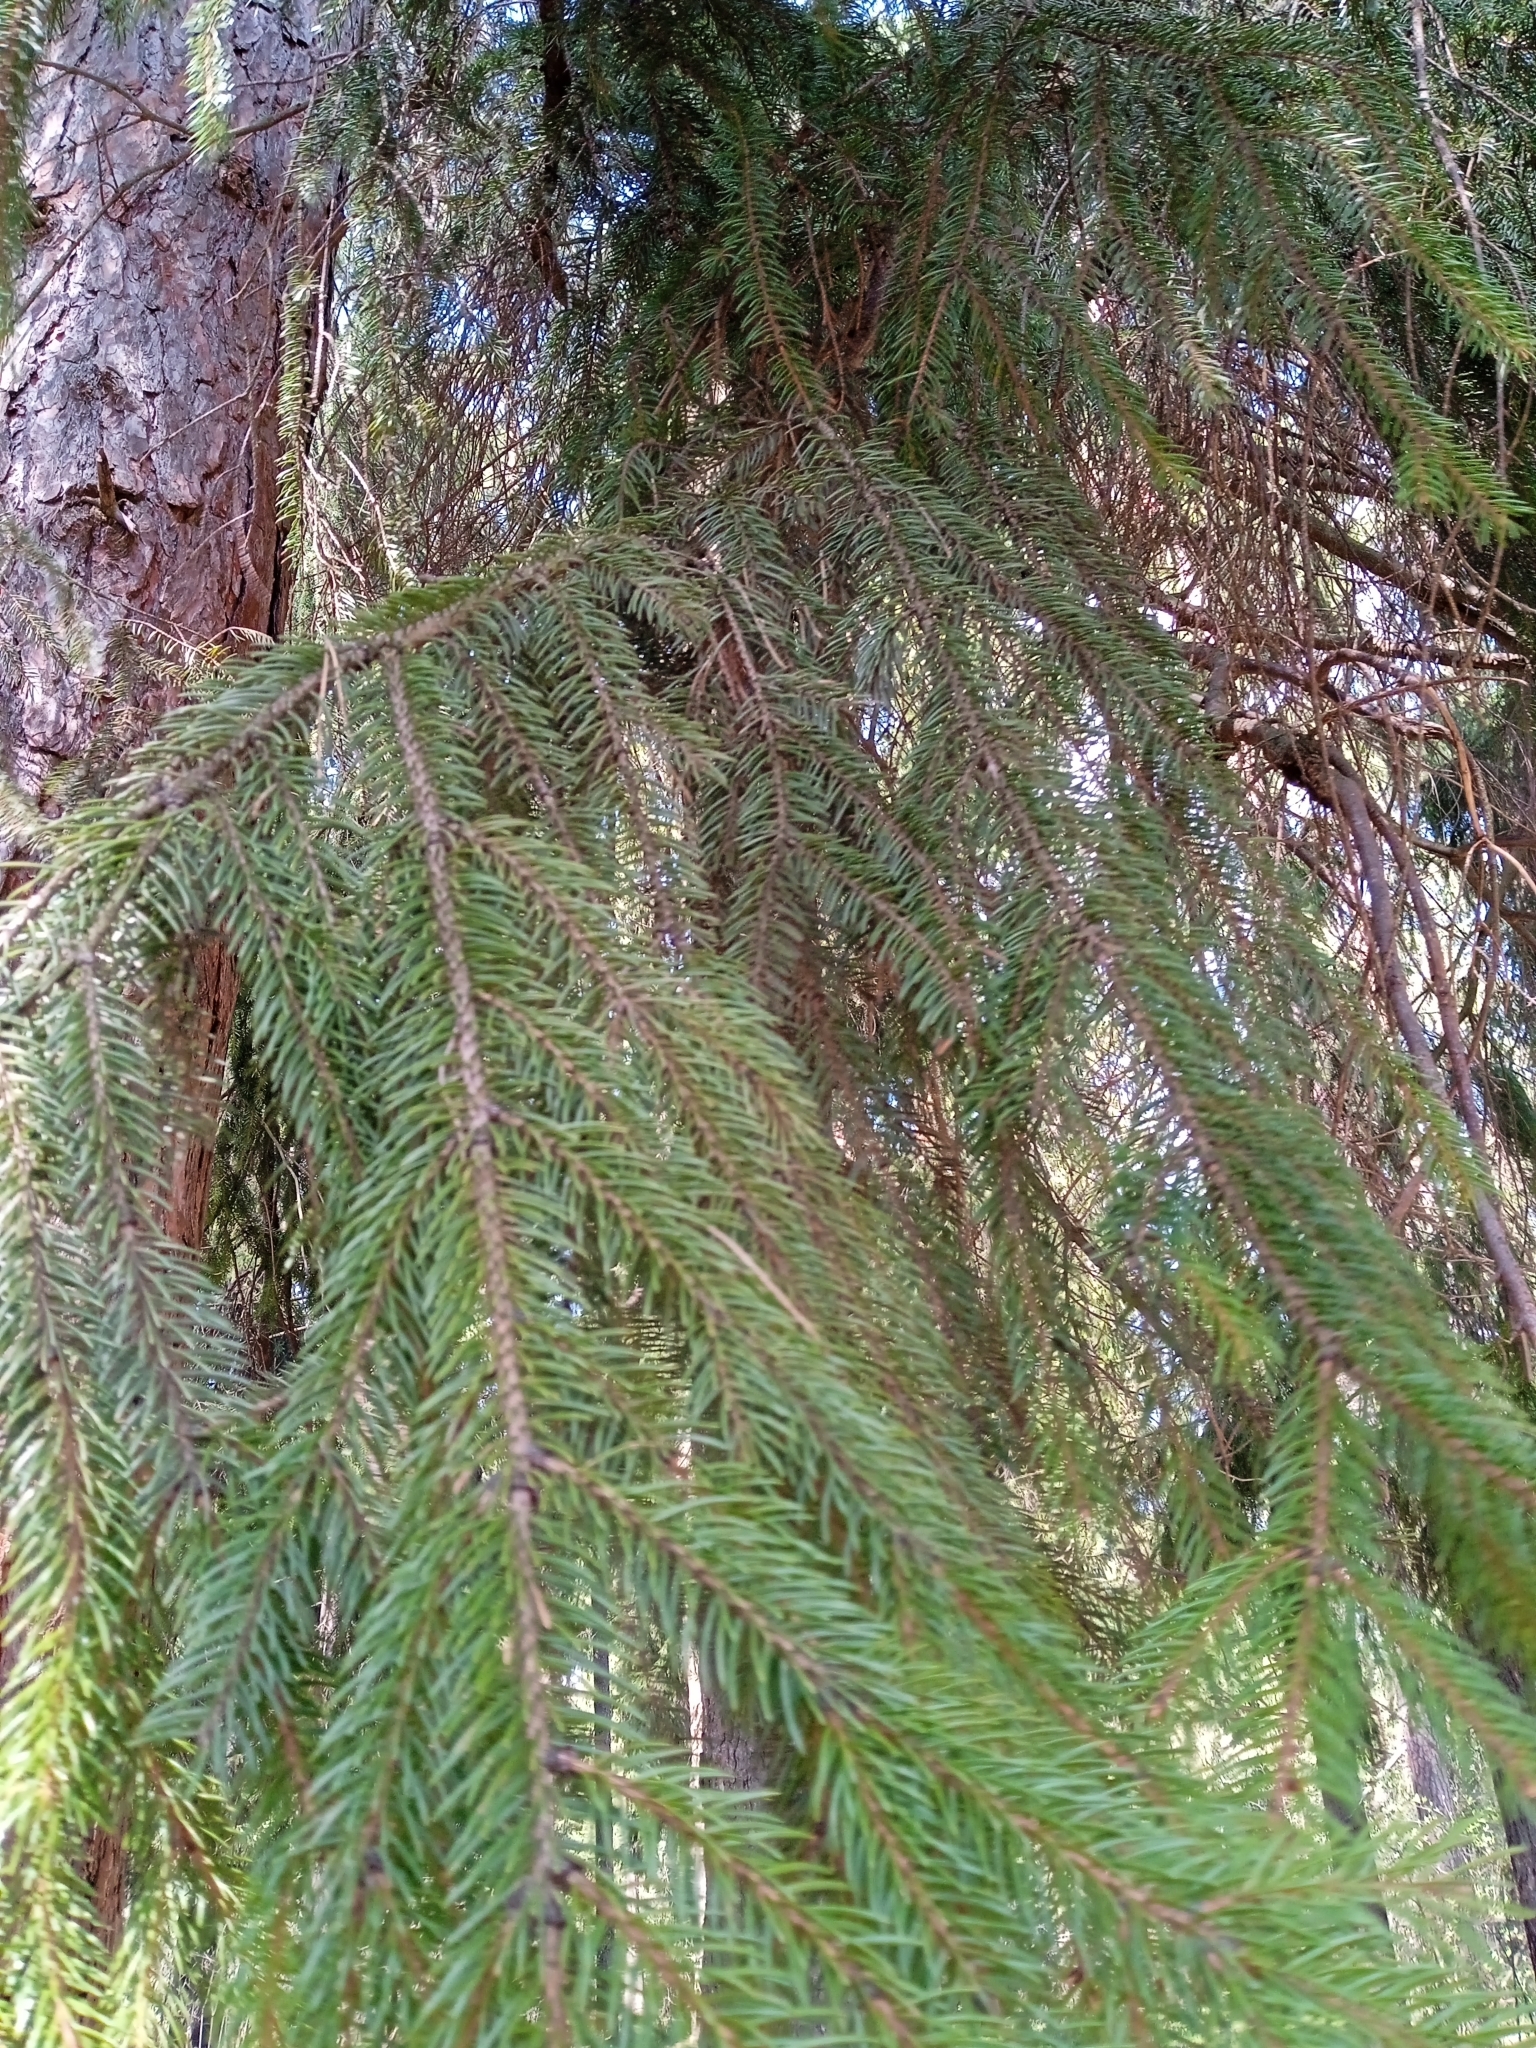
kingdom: Plantae
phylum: Tracheophyta
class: Pinopsida
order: Pinales
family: Pinaceae
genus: Picea
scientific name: Picea abies
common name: Norway spruce
